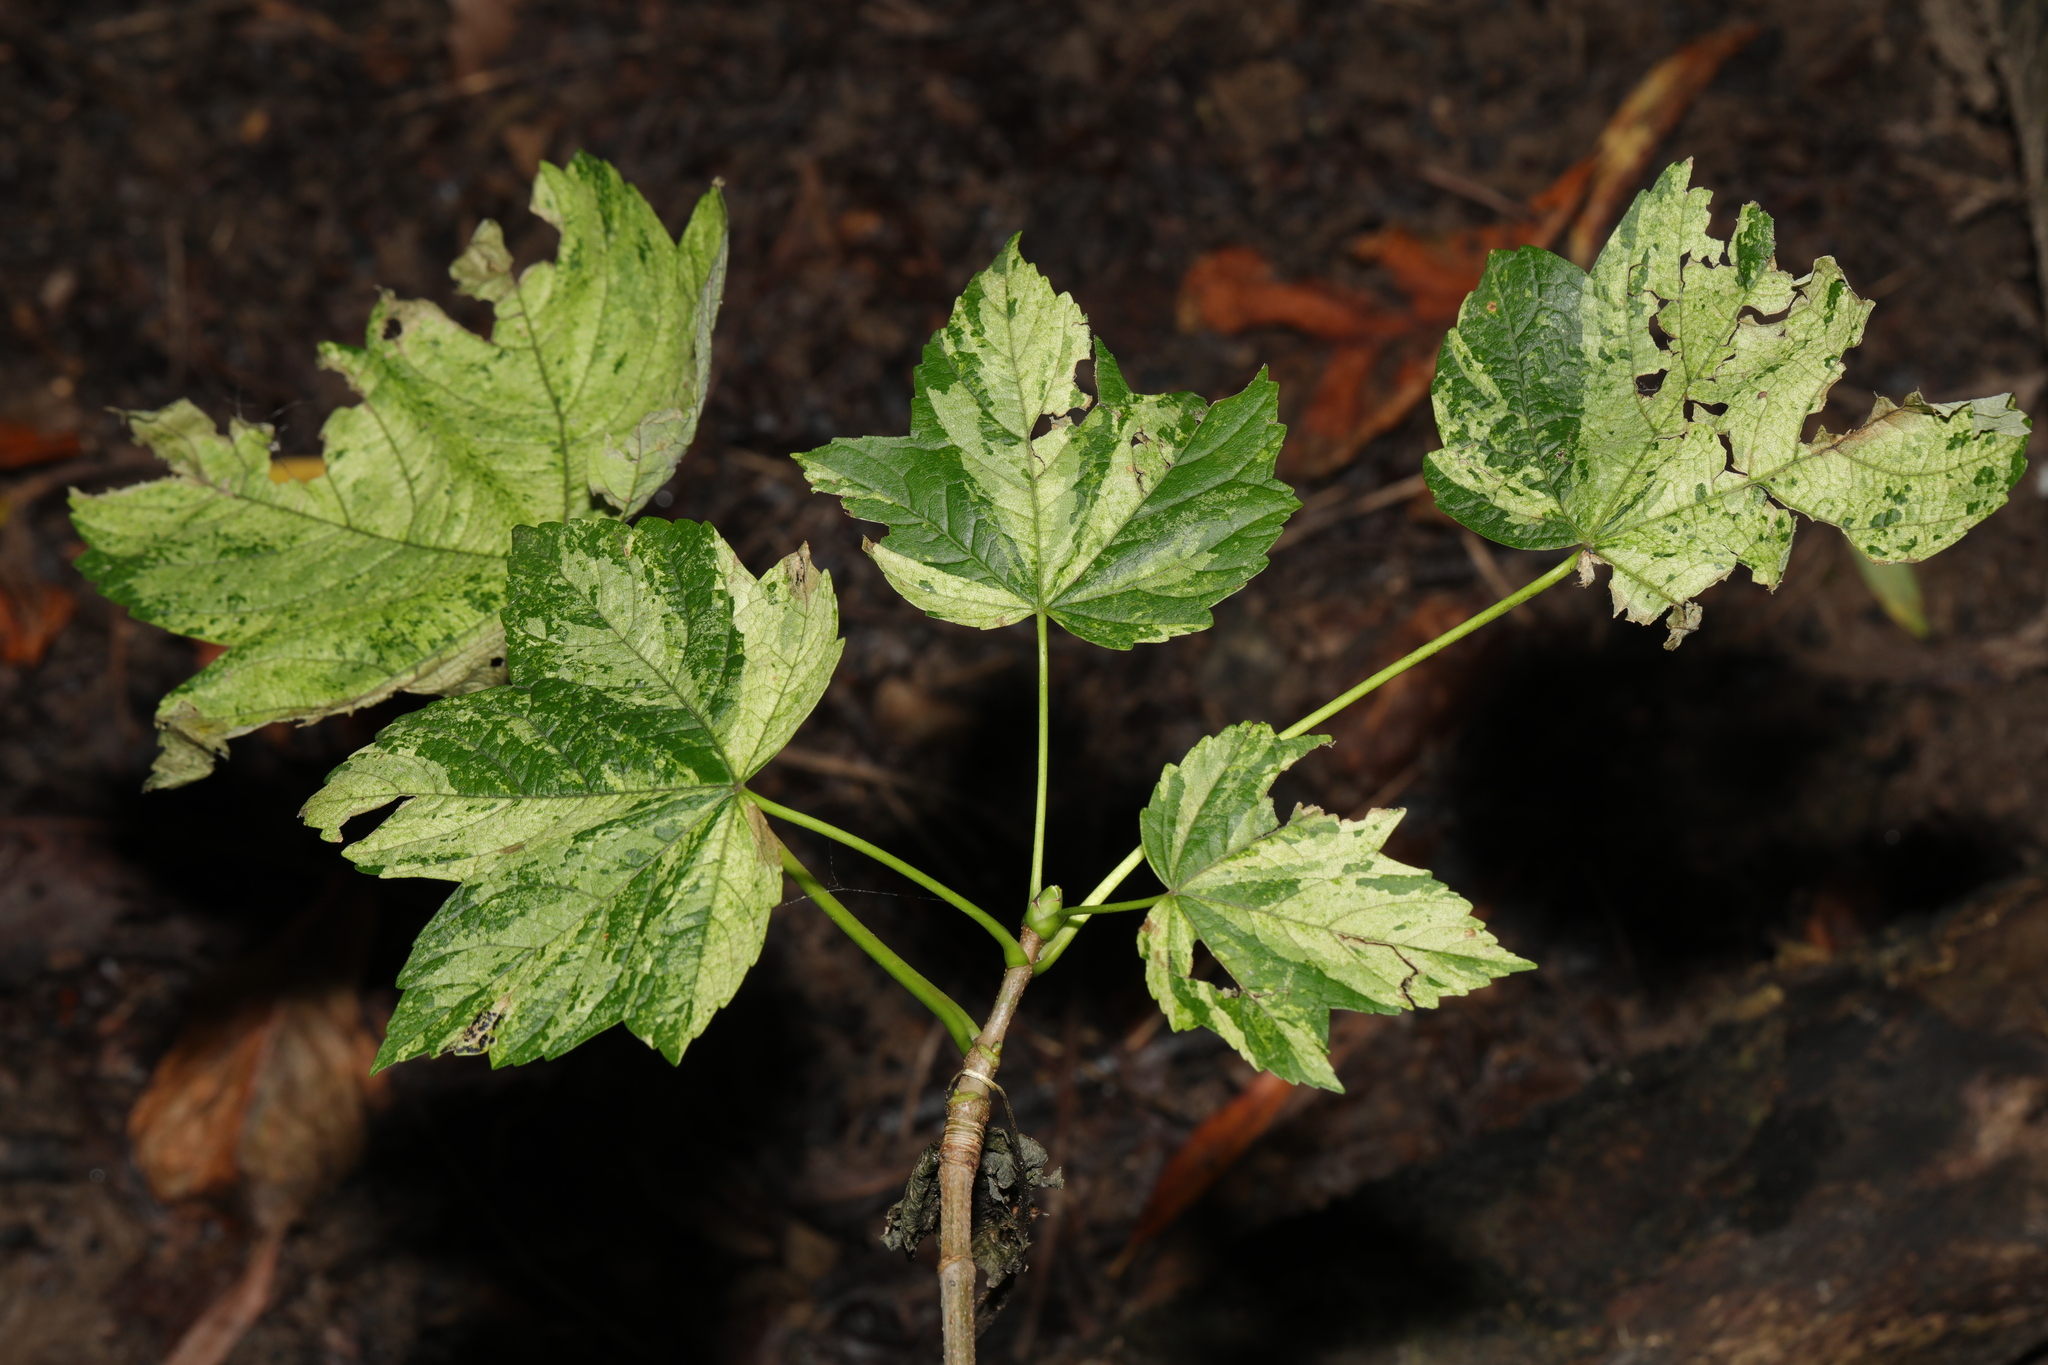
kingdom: Plantae
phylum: Tracheophyta
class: Magnoliopsida
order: Sapindales
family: Sapindaceae
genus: Acer
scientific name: Acer pseudoplatanus
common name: Sycamore
